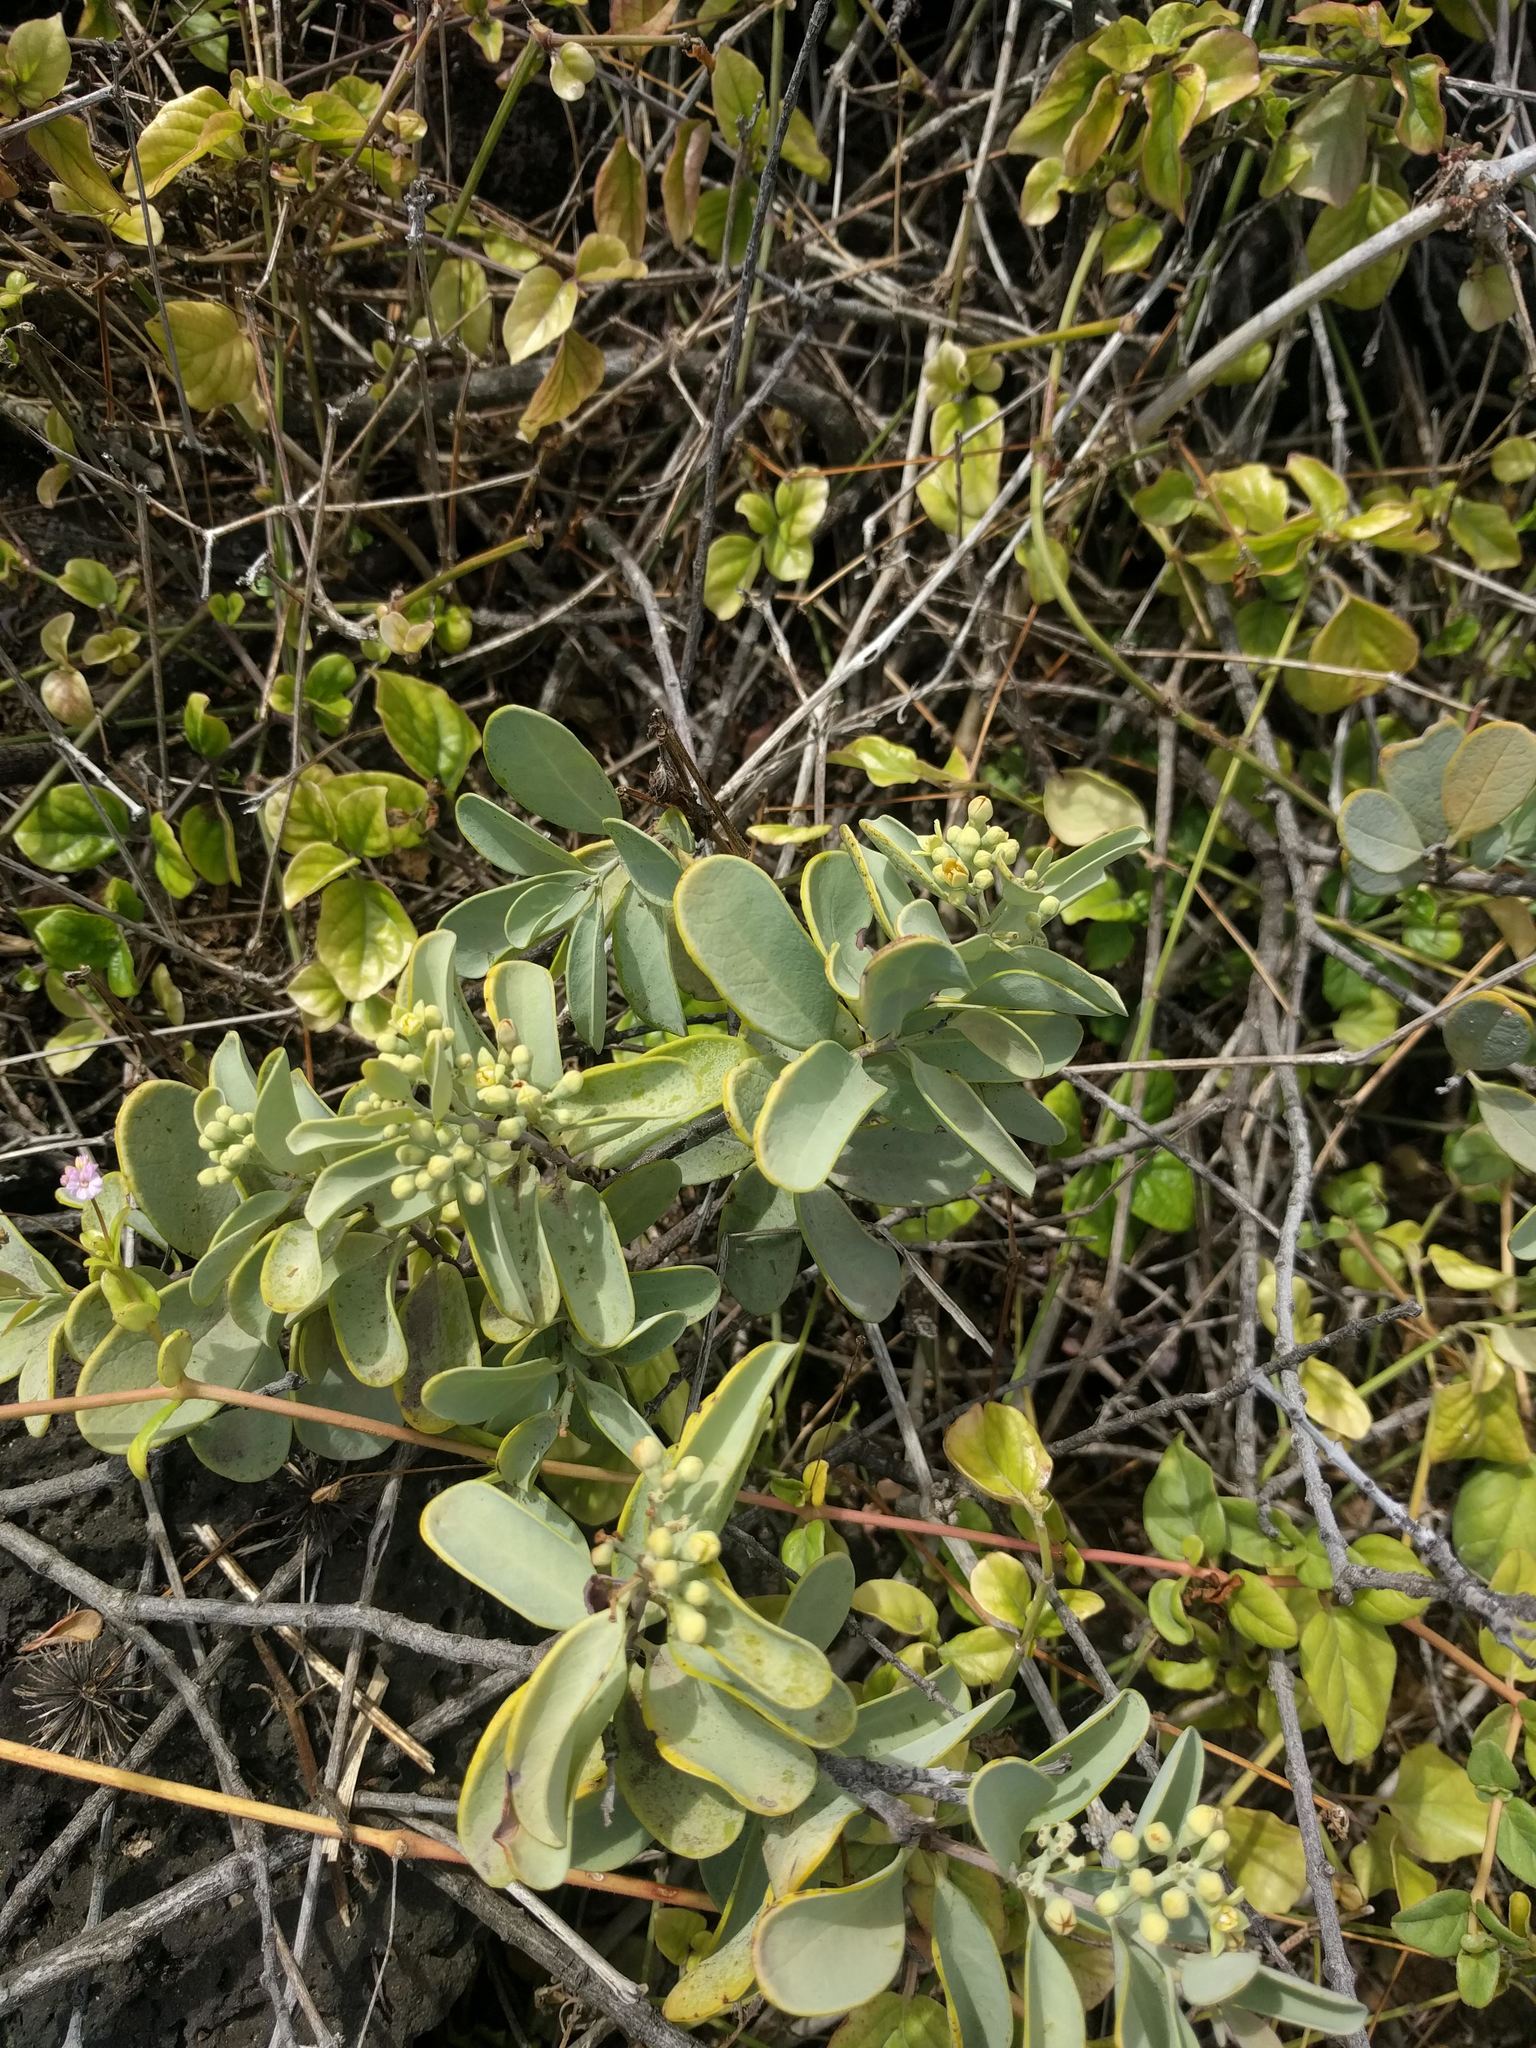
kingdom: Plantae
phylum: Tracheophyta
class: Magnoliopsida
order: Santalales
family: Santalaceae
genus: Santalum
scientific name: Santalum ellipticum
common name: Coast sandalwood
